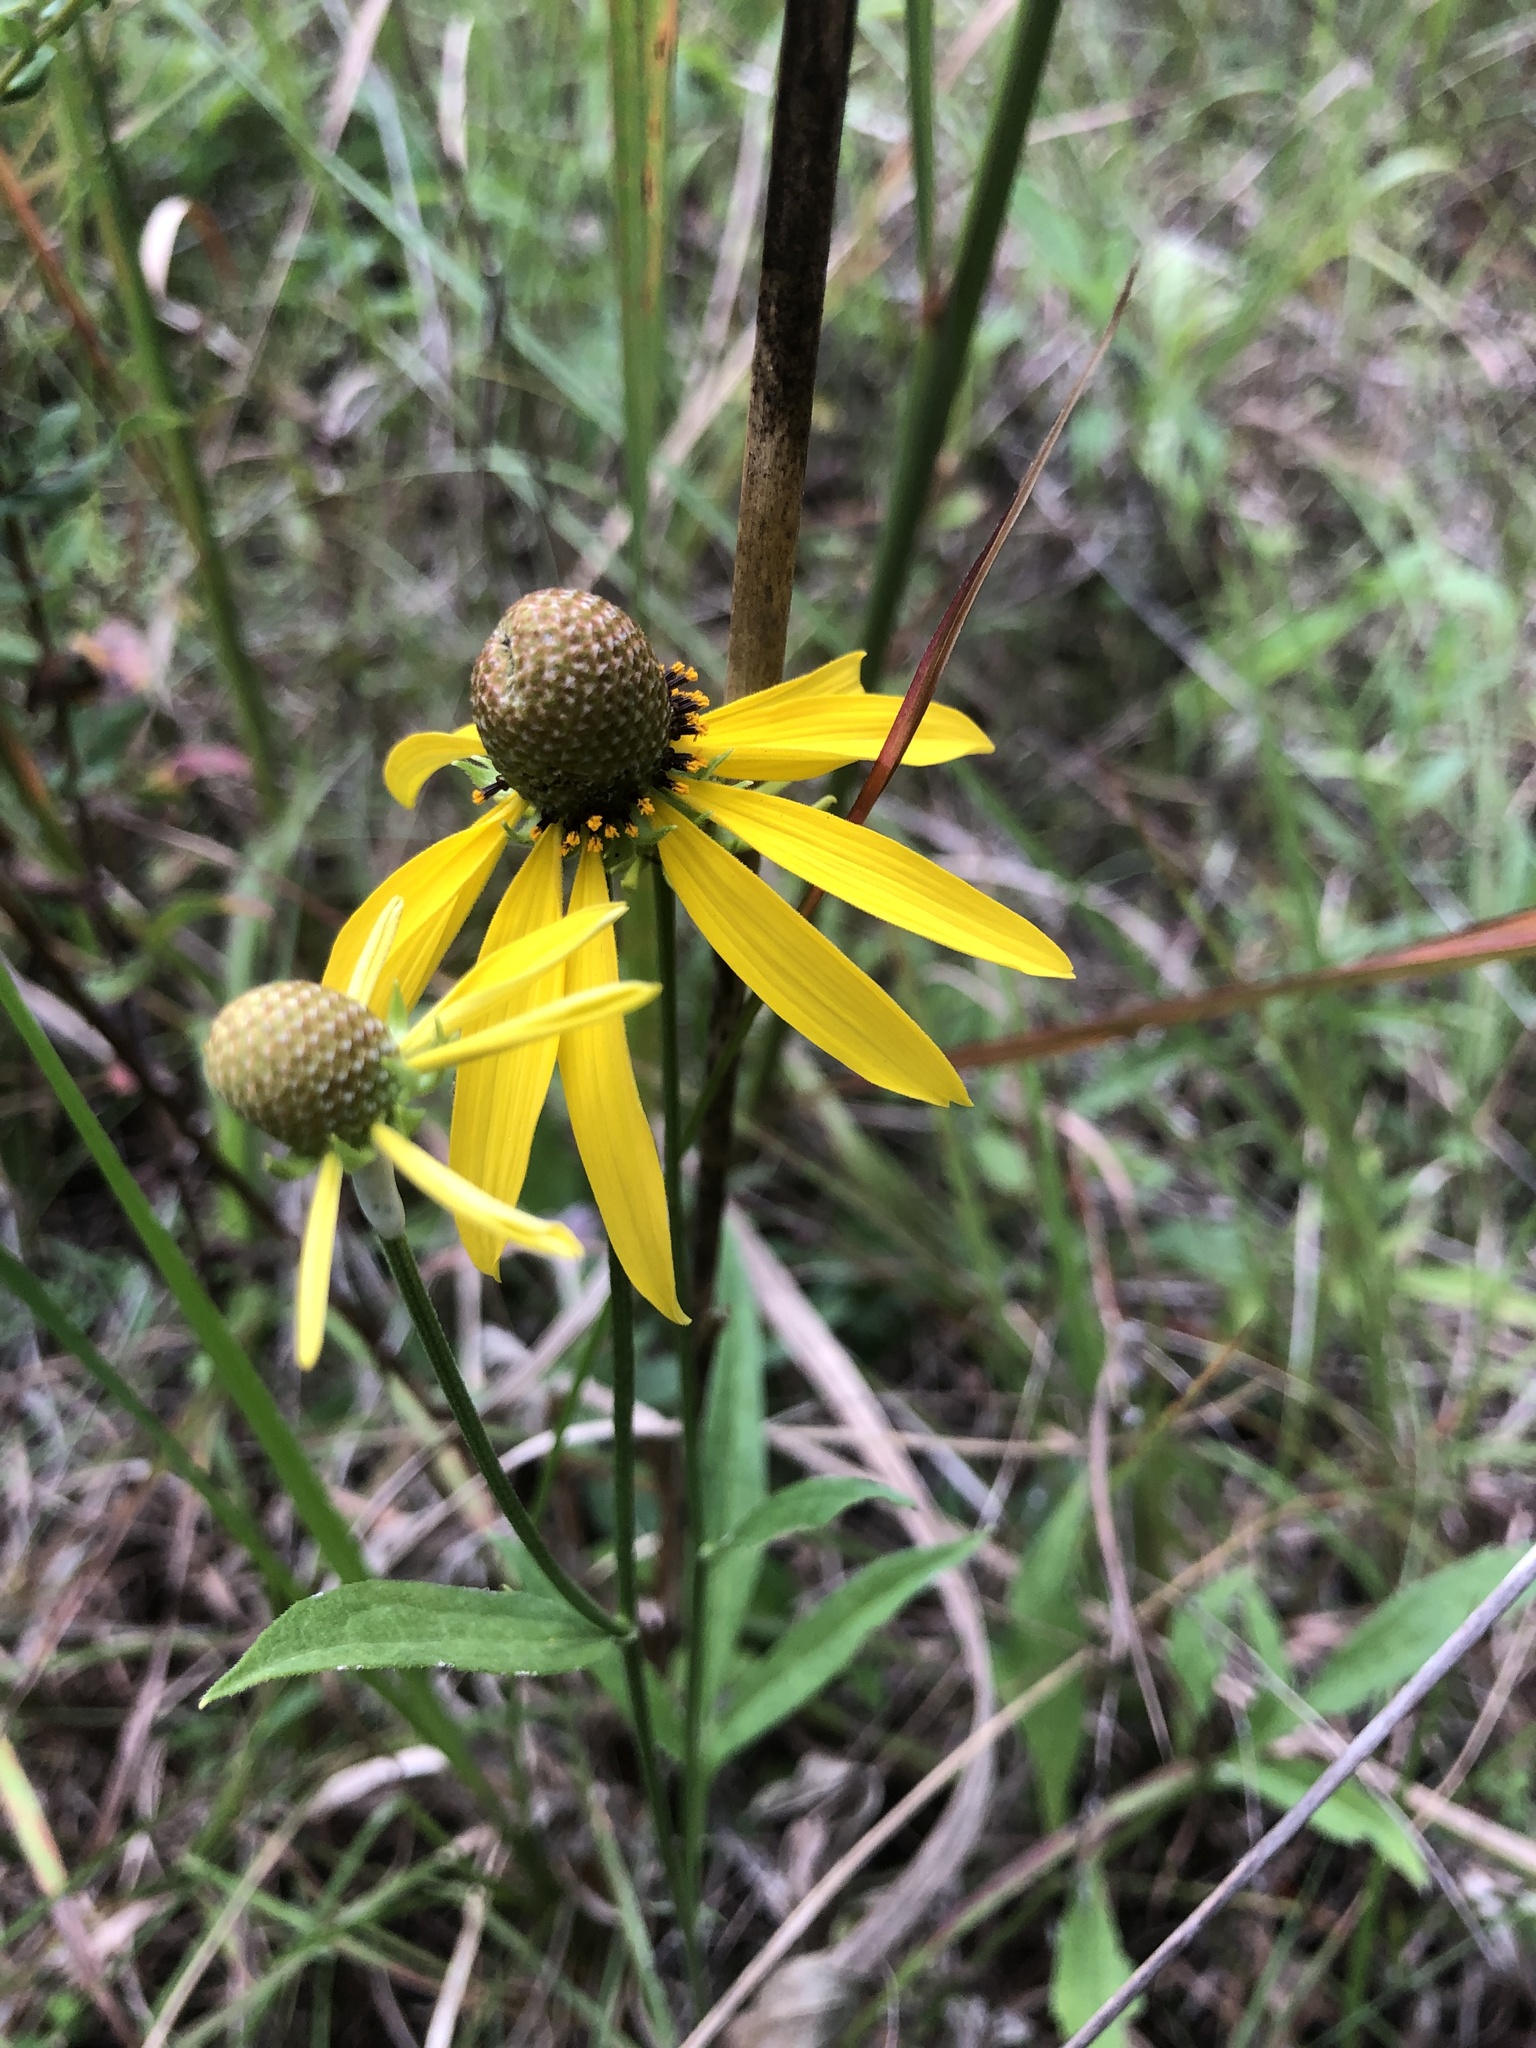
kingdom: Plantae
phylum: Tracheophyta
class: Magnoliopsida
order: Asterales
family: Asteraceae
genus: Ratibida
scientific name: Ratibida pinnata
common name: Drooping prairie-coneflower
